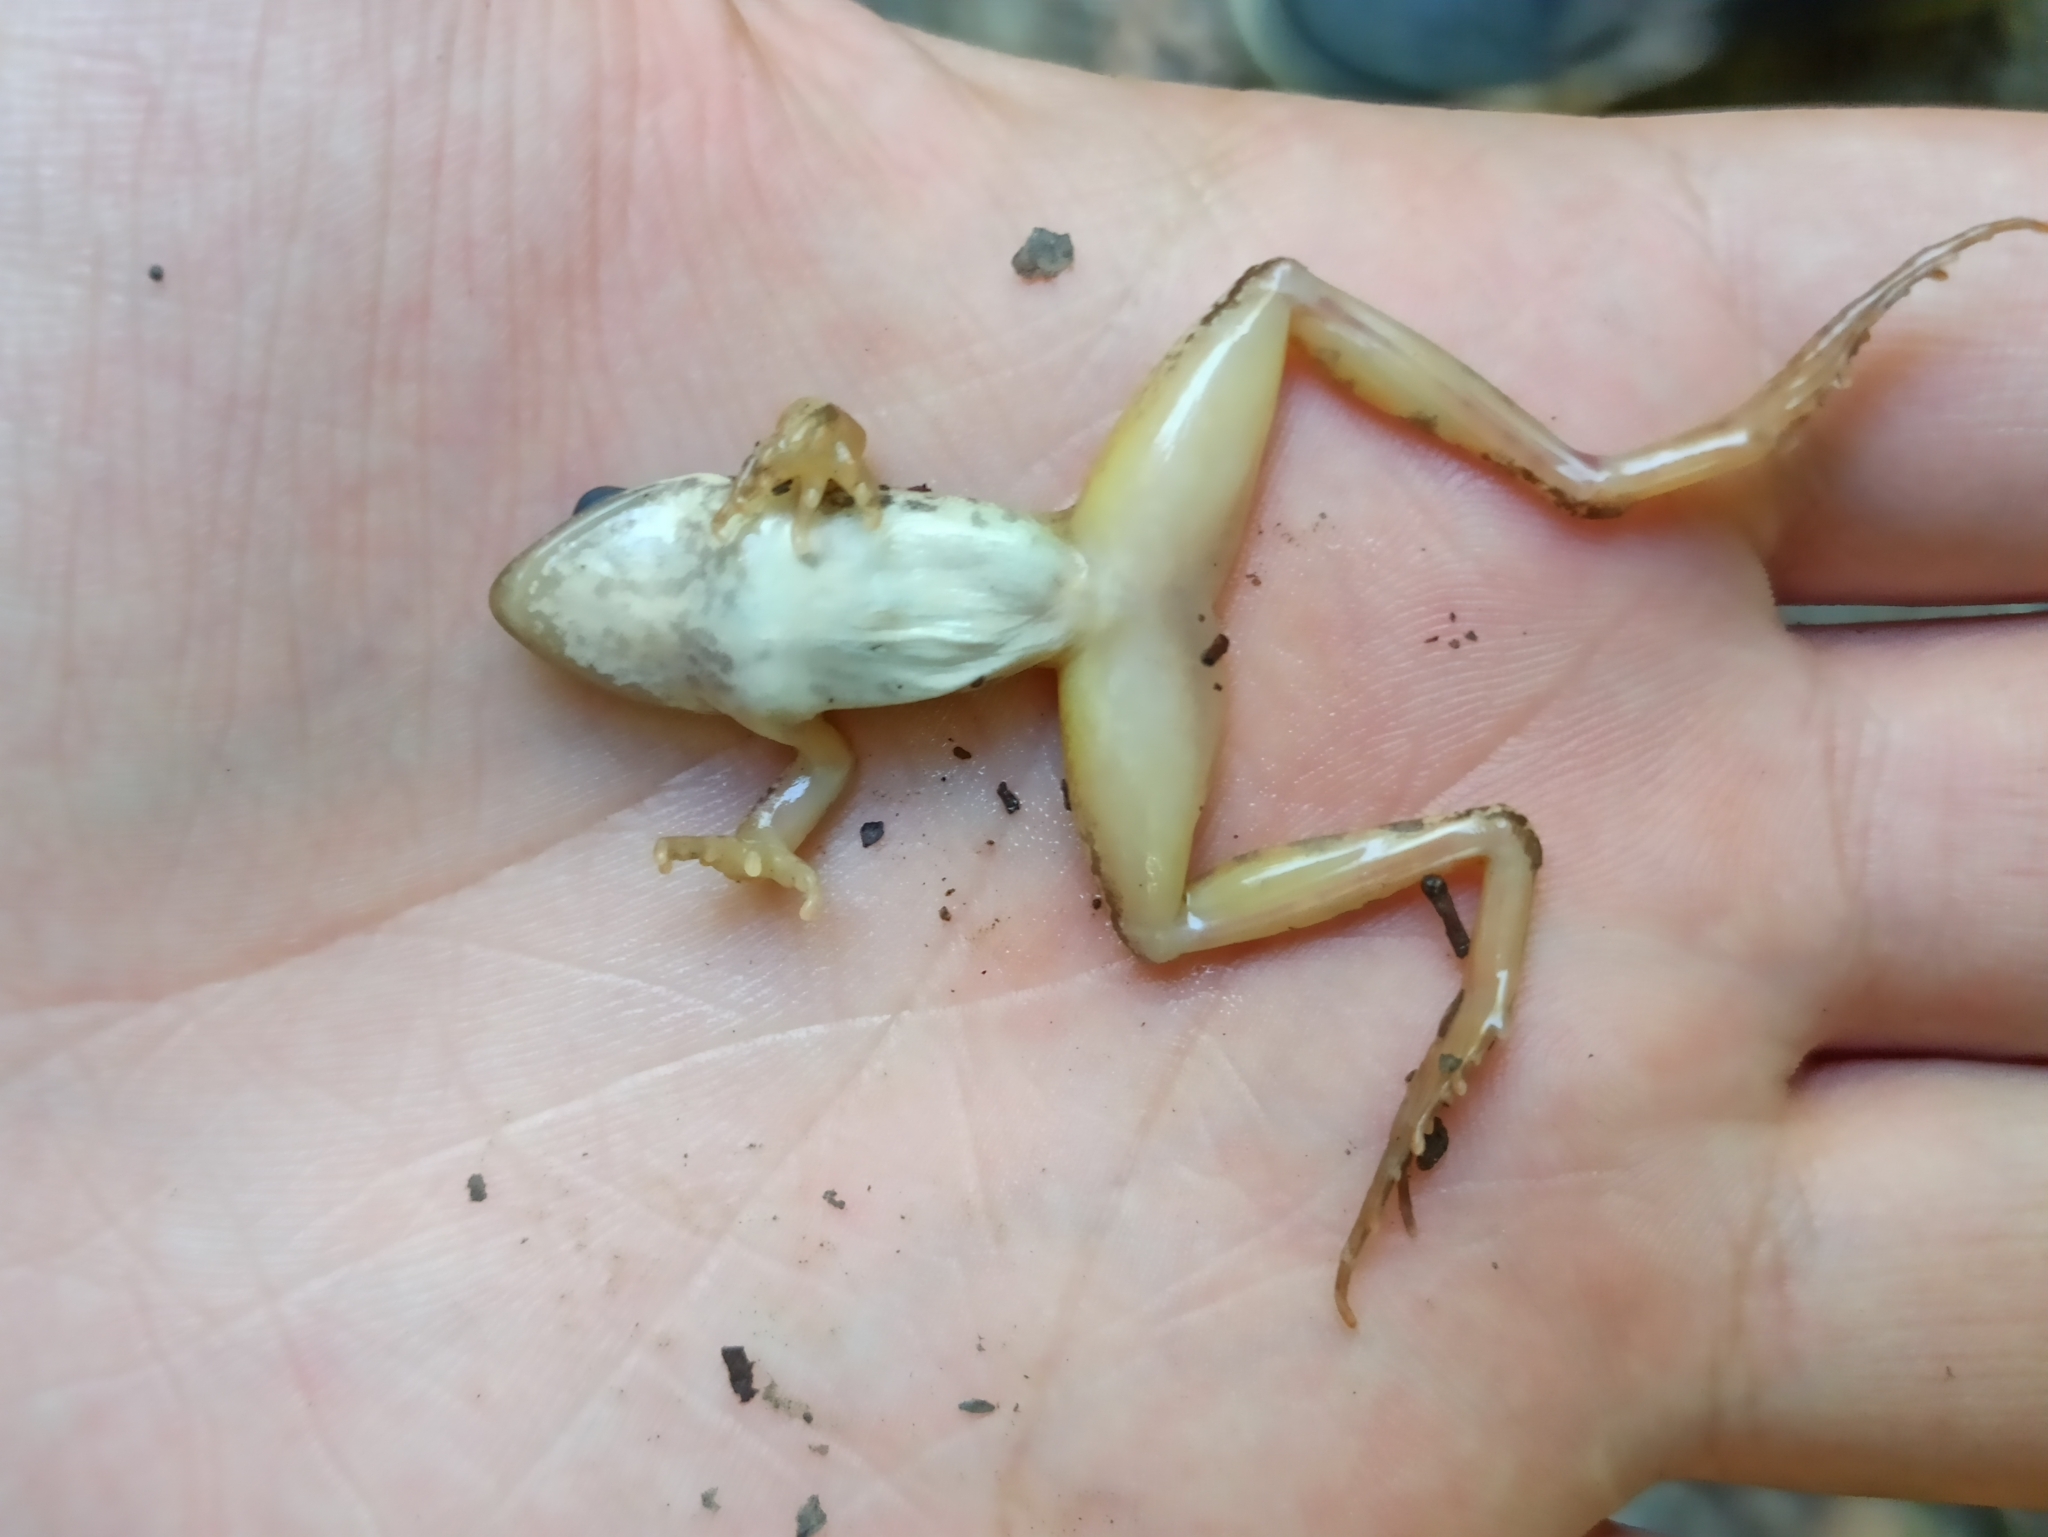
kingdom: Animalia
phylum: Chordata
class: Amphibia
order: Anura
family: Ranidae
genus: Rana
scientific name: Rana pseudodalmatina
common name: Hyrcanian frog
